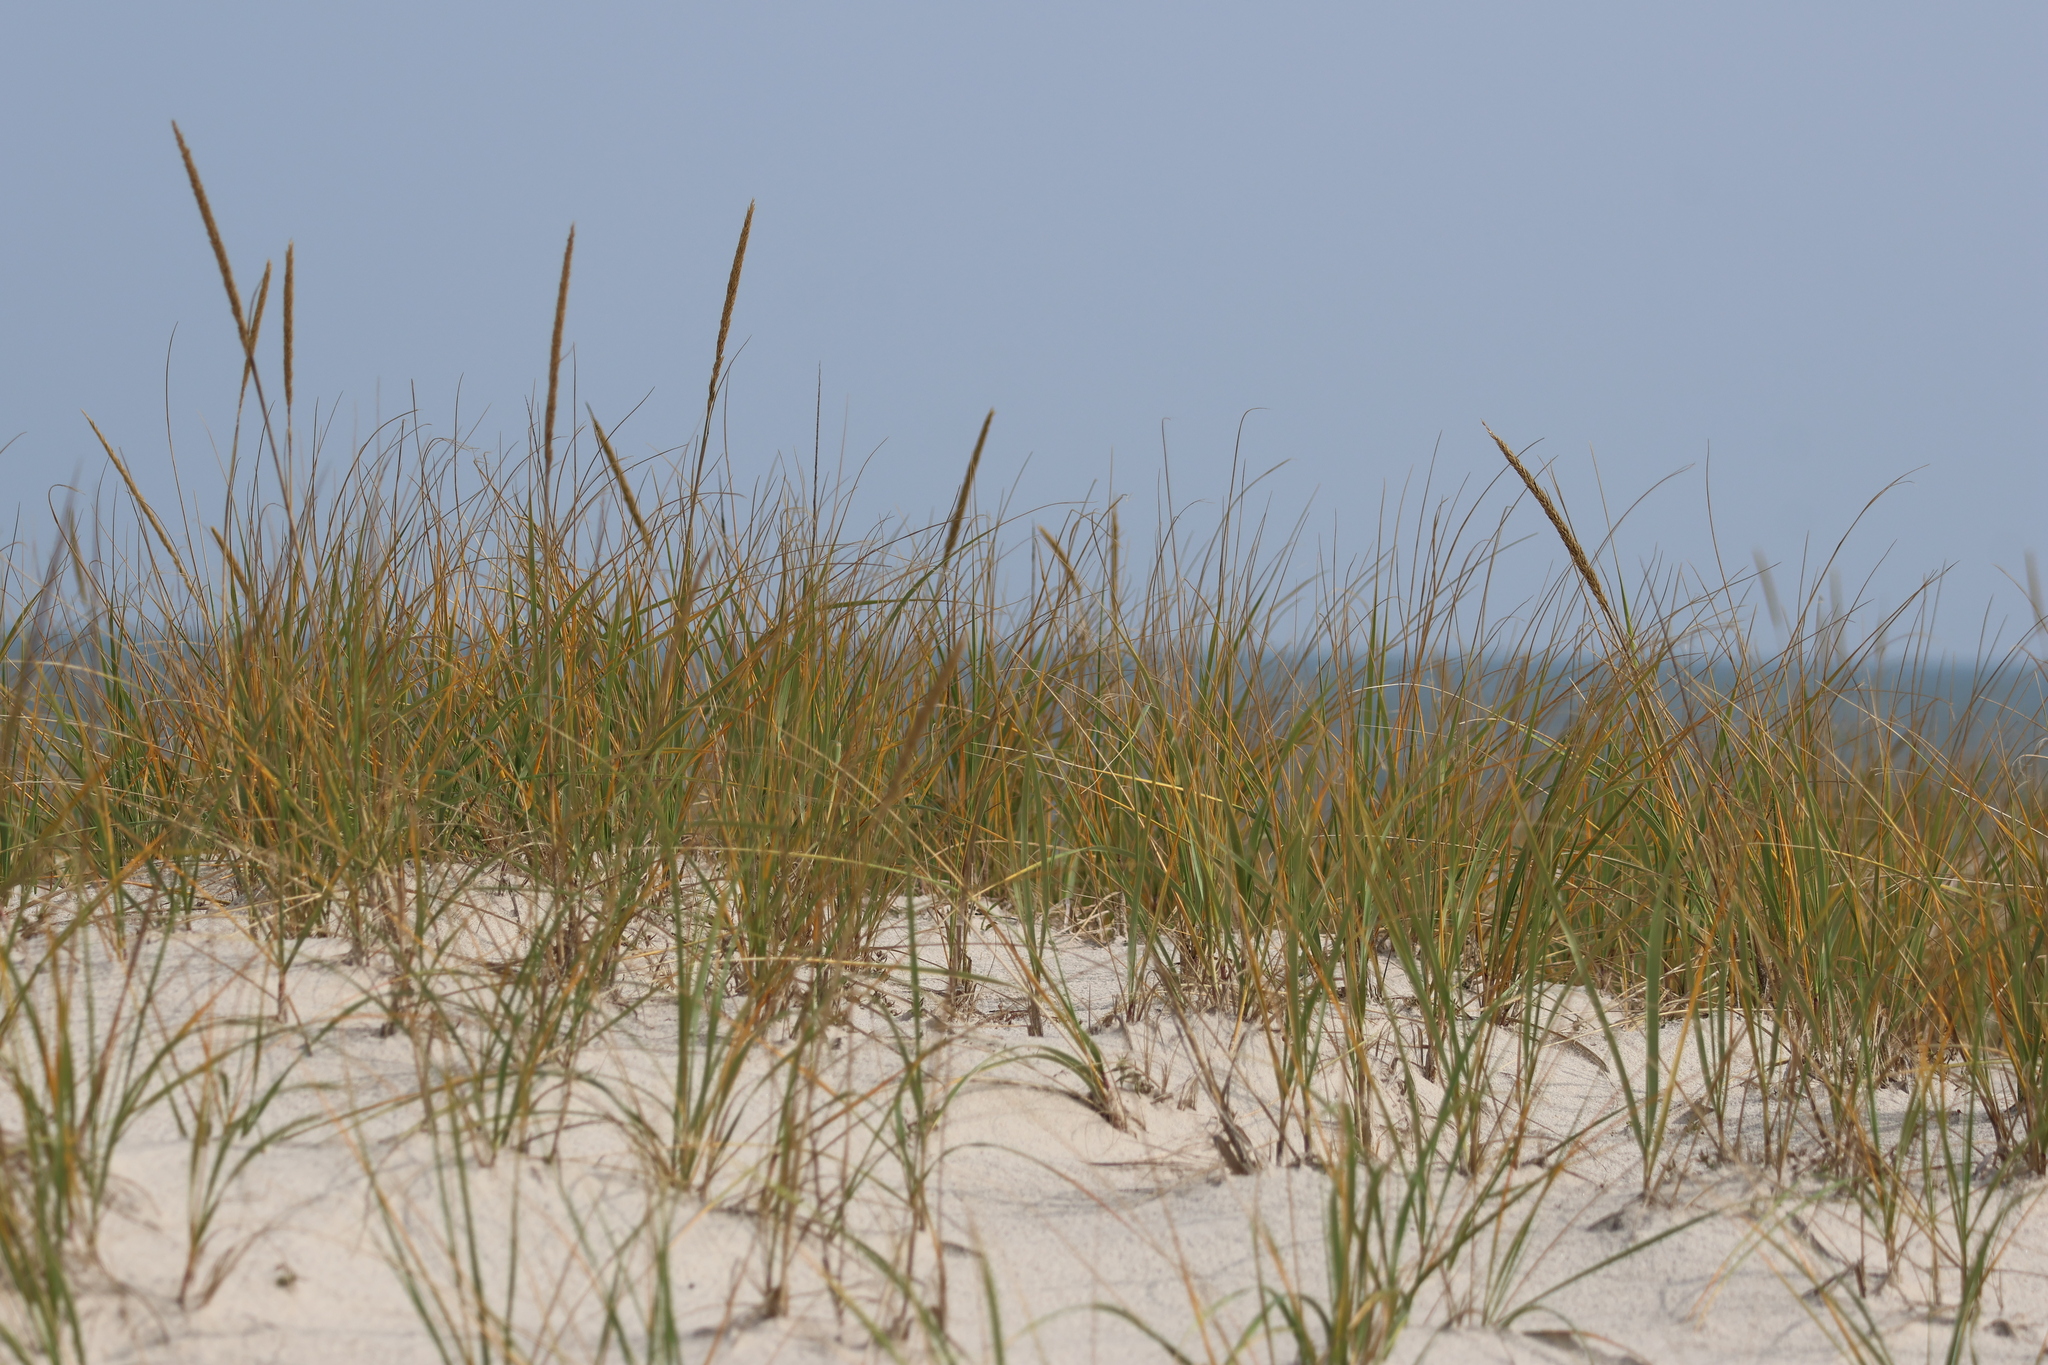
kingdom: Plantae
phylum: Tracheophyta
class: Liliopsida
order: Poales
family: Poaceae
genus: Calamagrostis
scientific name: Calamagrostis breviligulata
